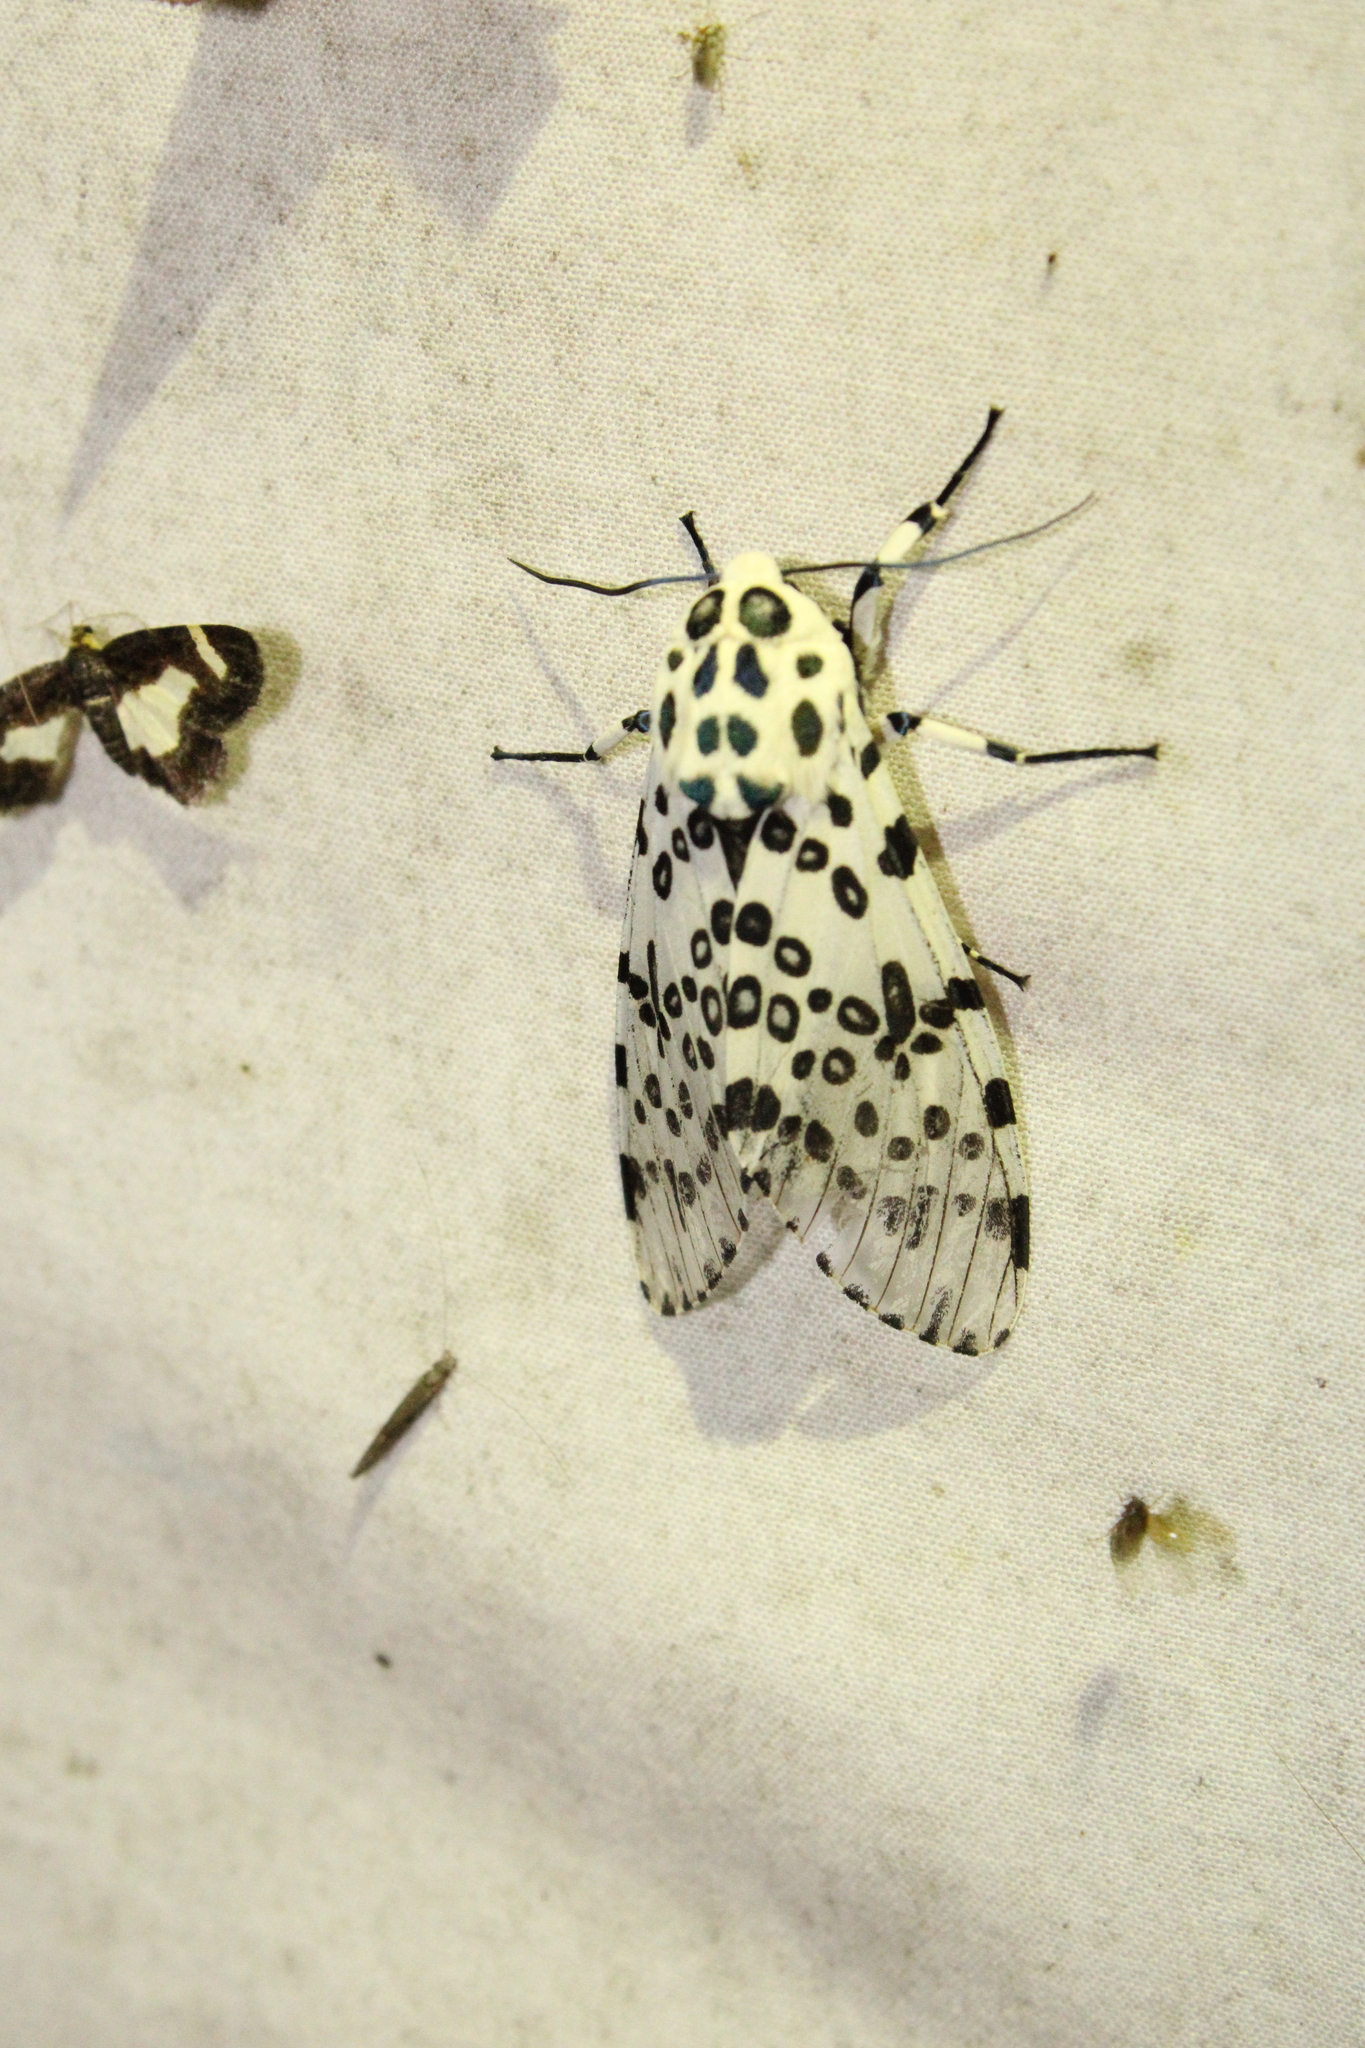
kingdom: Animalia
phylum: Arthropoda
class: Insecta
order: Lepidoptera
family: Erebidae
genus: Hypercompe
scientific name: Hypercompe scribonia
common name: Giant leopard moth
